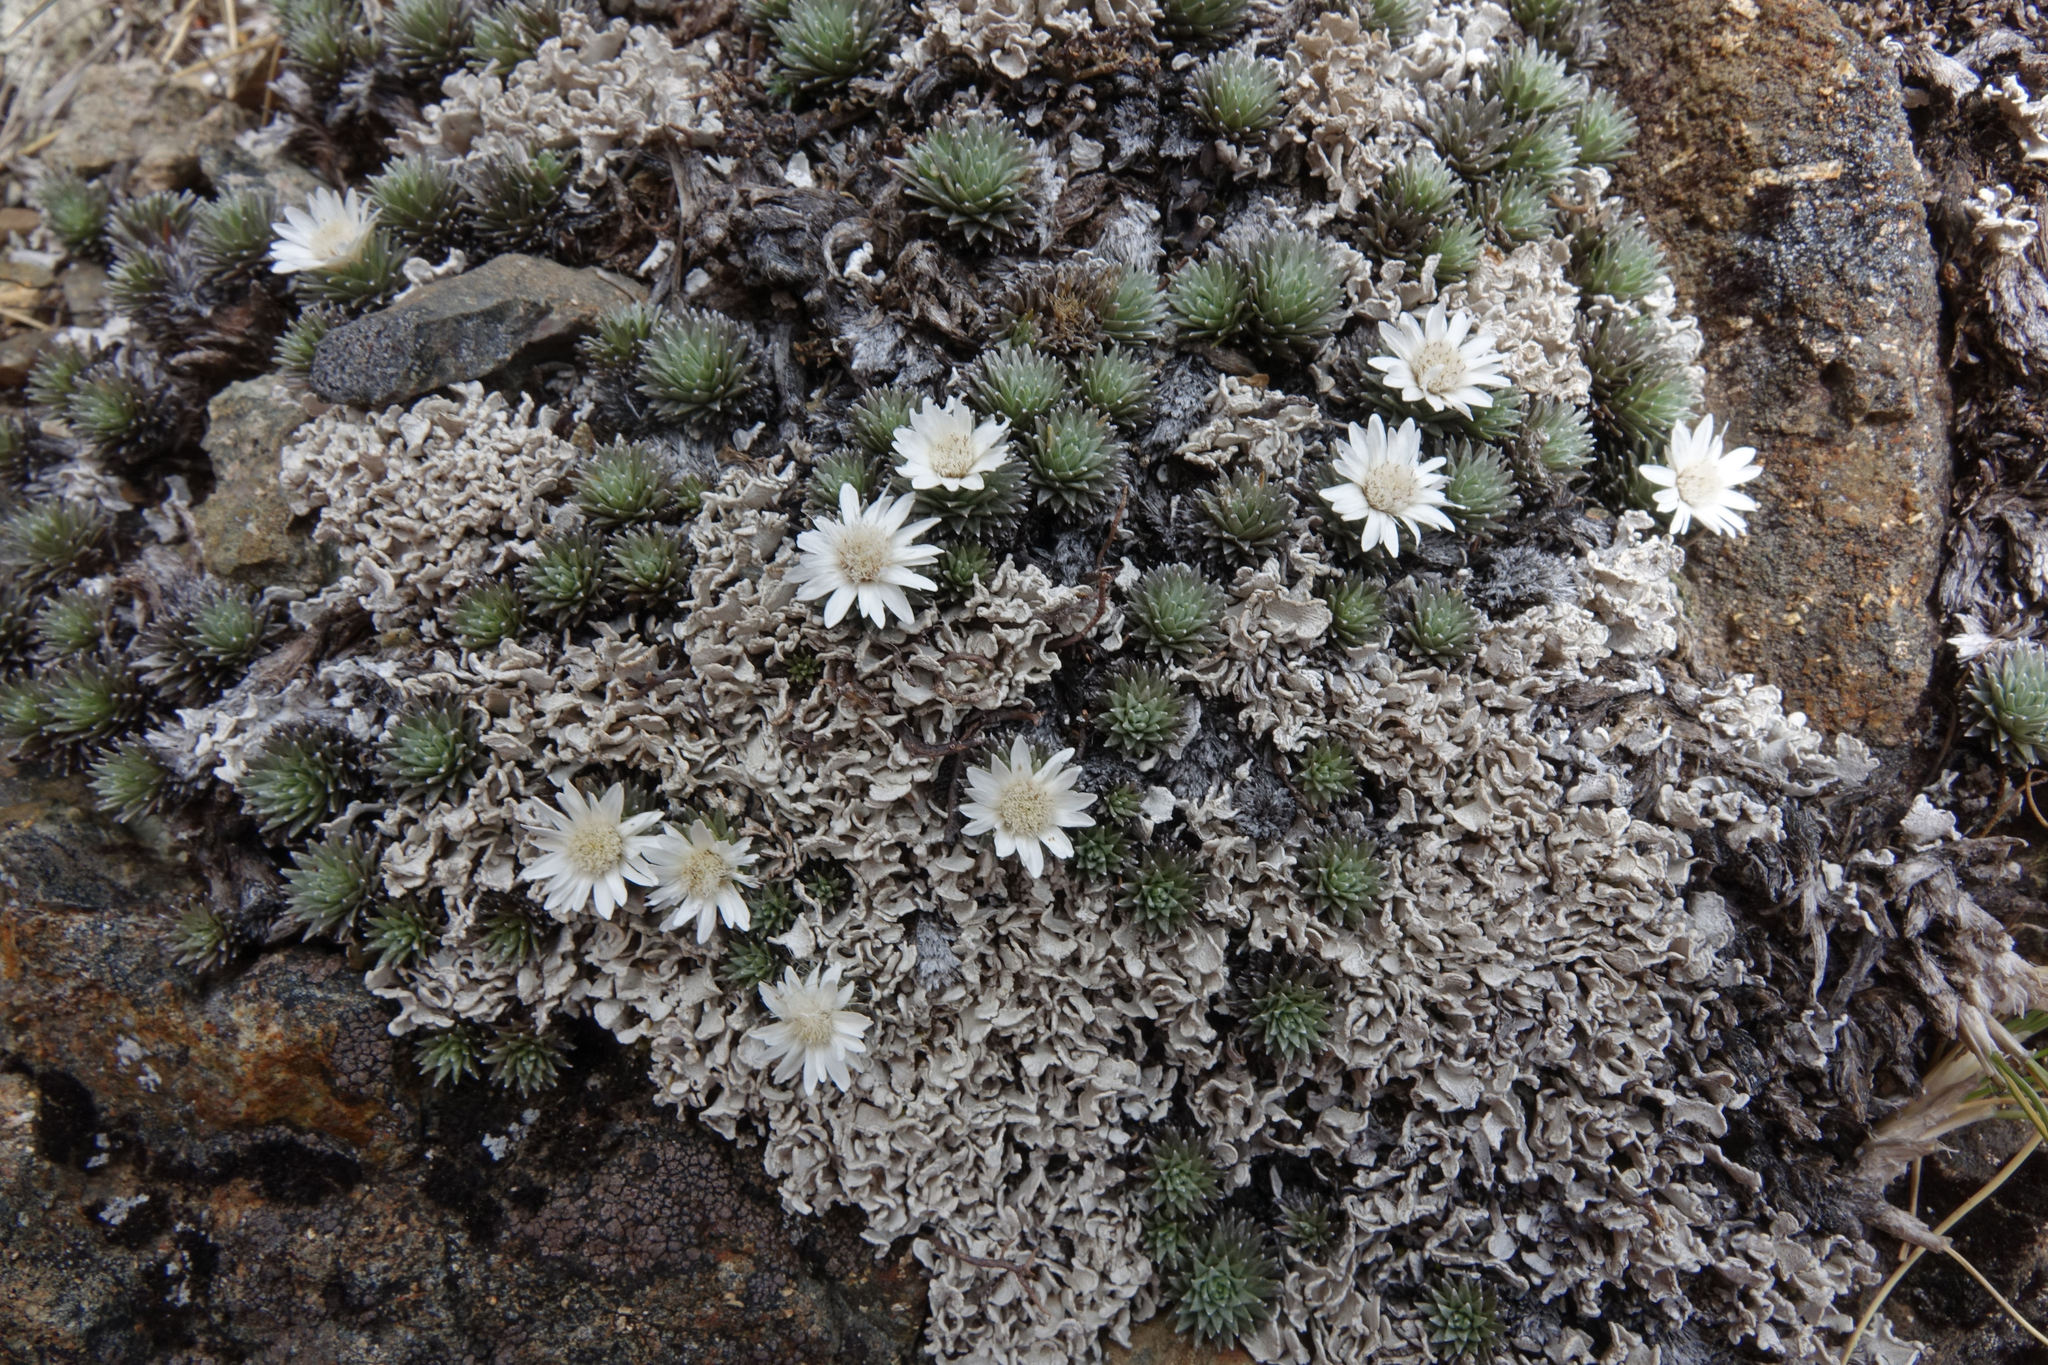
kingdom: Plantae
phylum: Tracheophyta
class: Magnoliopsida
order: Asterales
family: Asteraceae
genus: Raoulia
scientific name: Raoulia grandiflora
